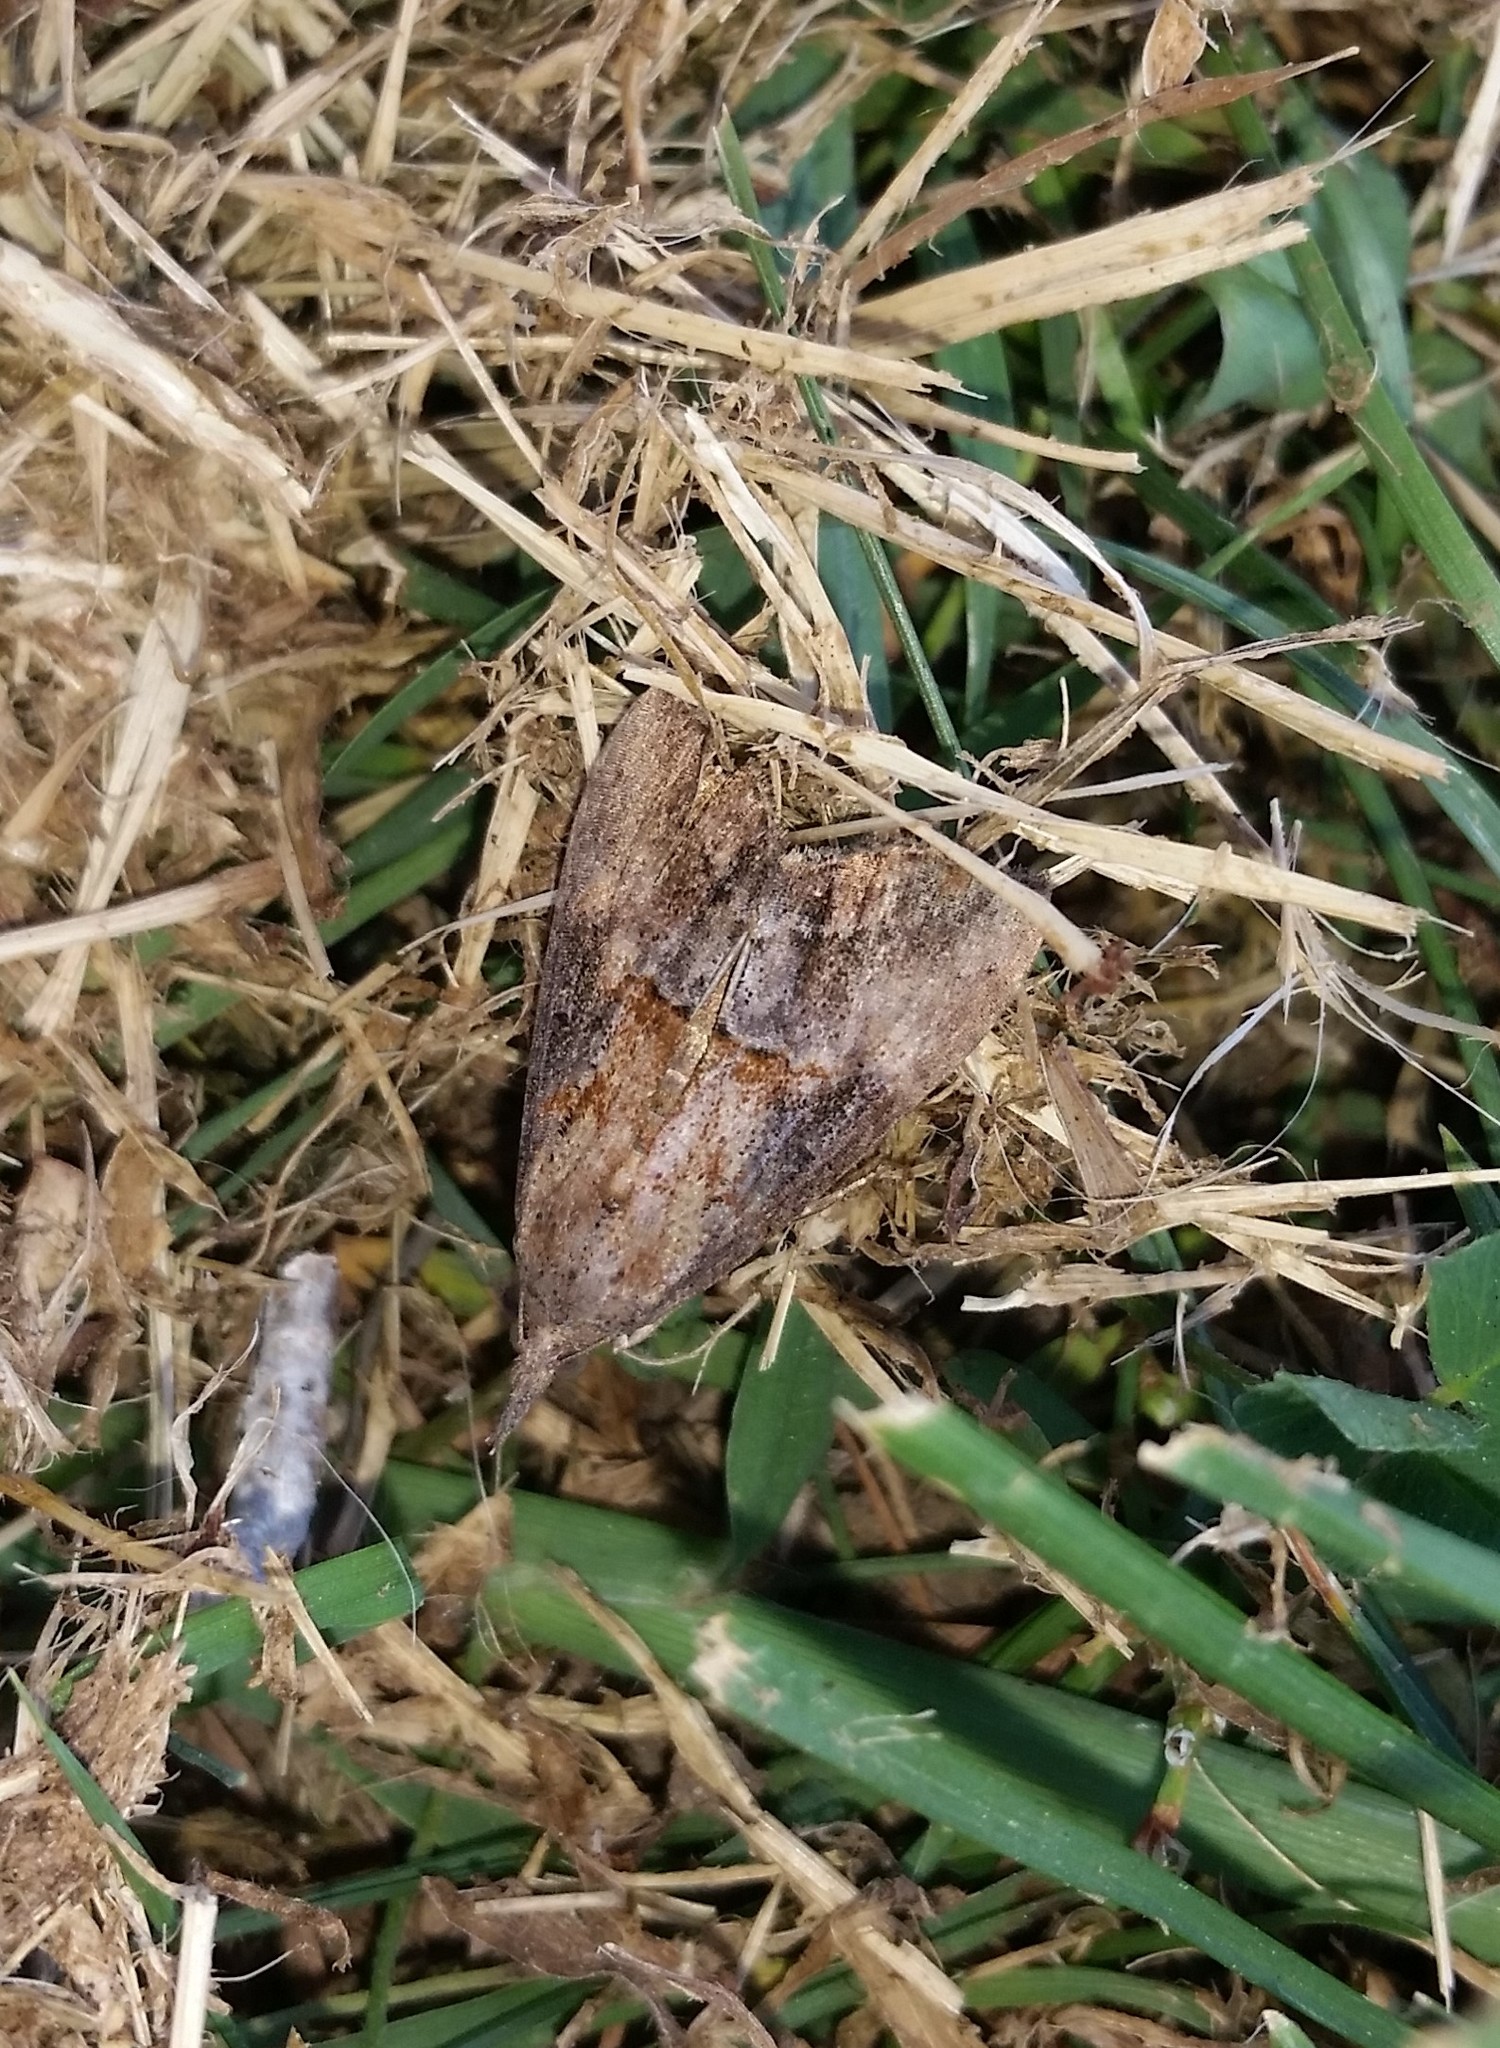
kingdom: Animalia
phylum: Arthropoda
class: Insecta
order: Lepidoptera
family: Erebidae
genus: Hypena
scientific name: Hypena scabra
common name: Green cloverworm
